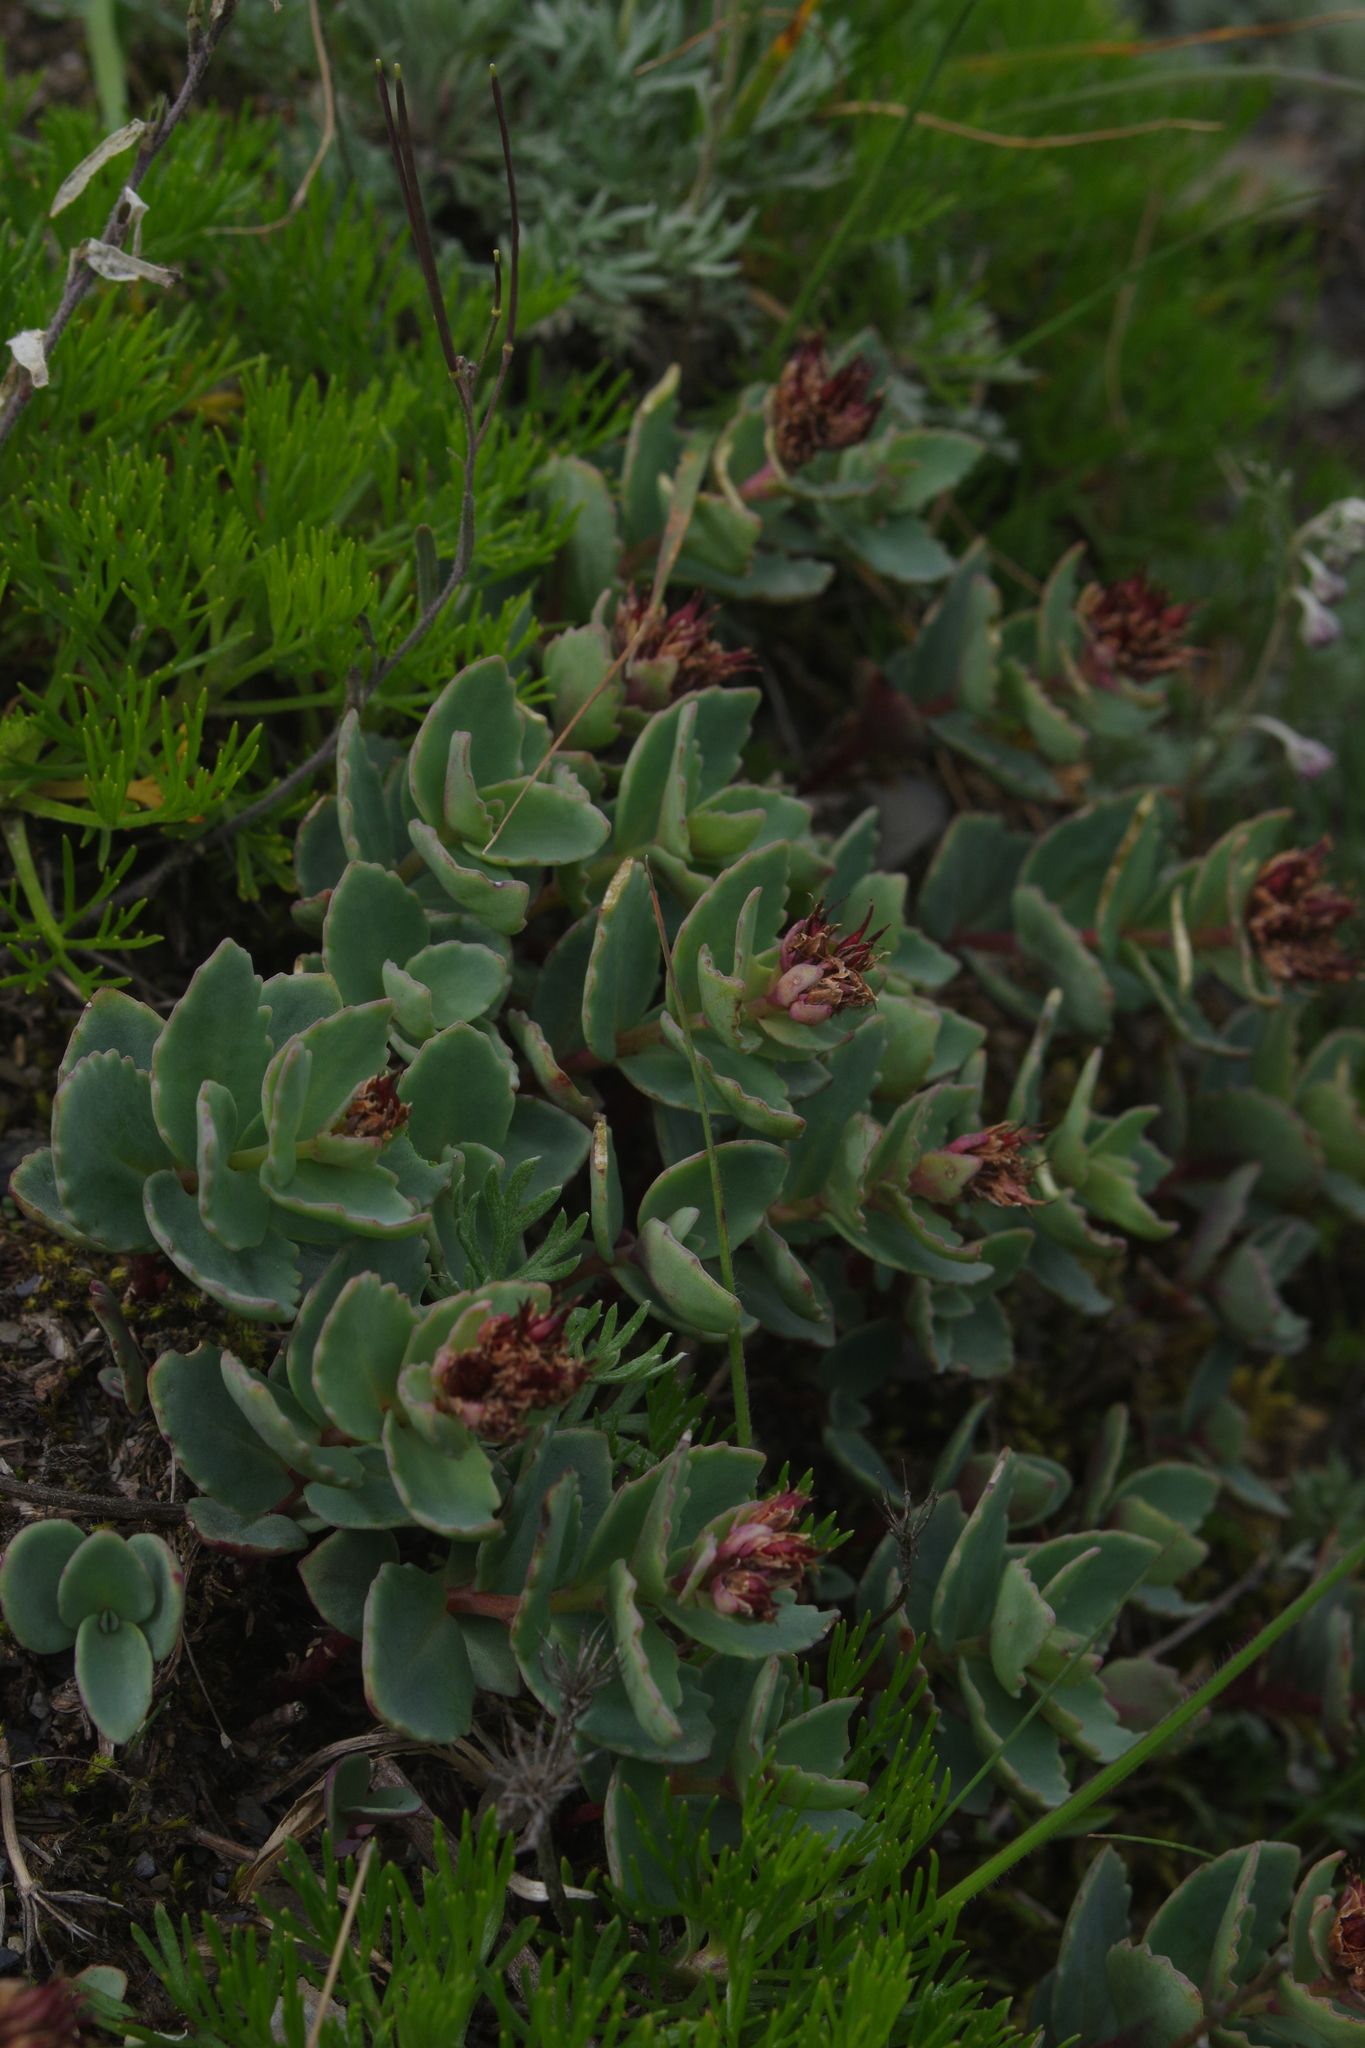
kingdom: Plantae
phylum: Tracheophyta
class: Magnoliopsida
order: Saxifragales
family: Crassulaceae
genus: Phedimus
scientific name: Phedimus subcapitatus
